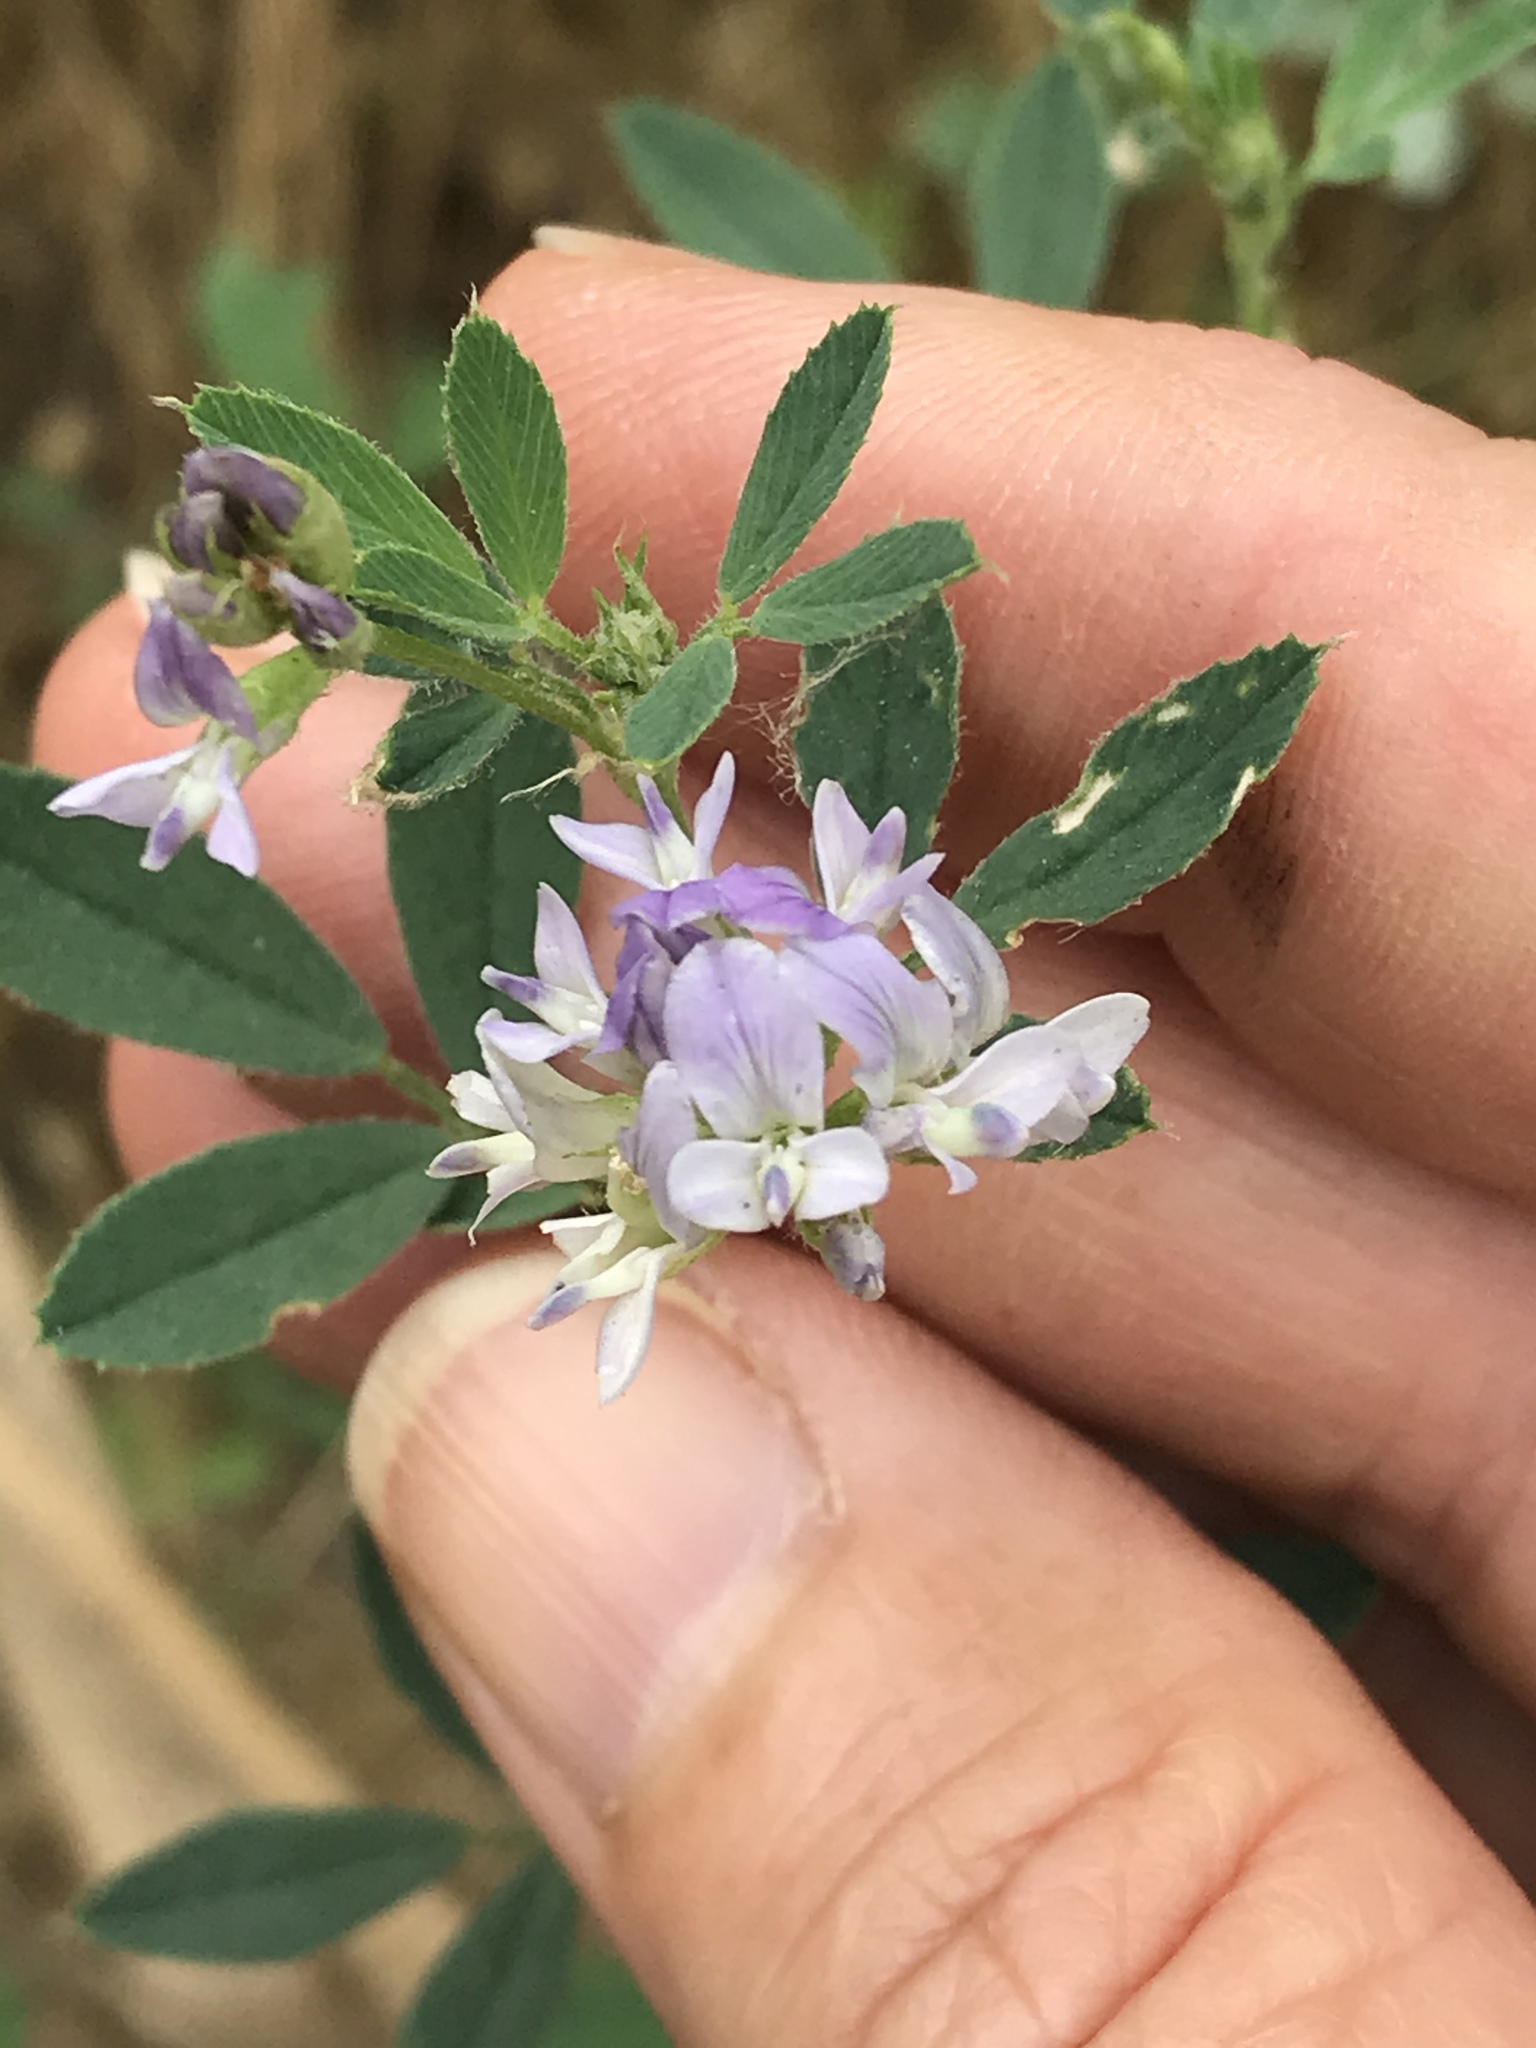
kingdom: Plantae
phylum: Tracheophyta
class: Magnoliopsida
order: Fabales
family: Fabaceae
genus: Medicago
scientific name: Medicago sativa
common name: Alfalfa
